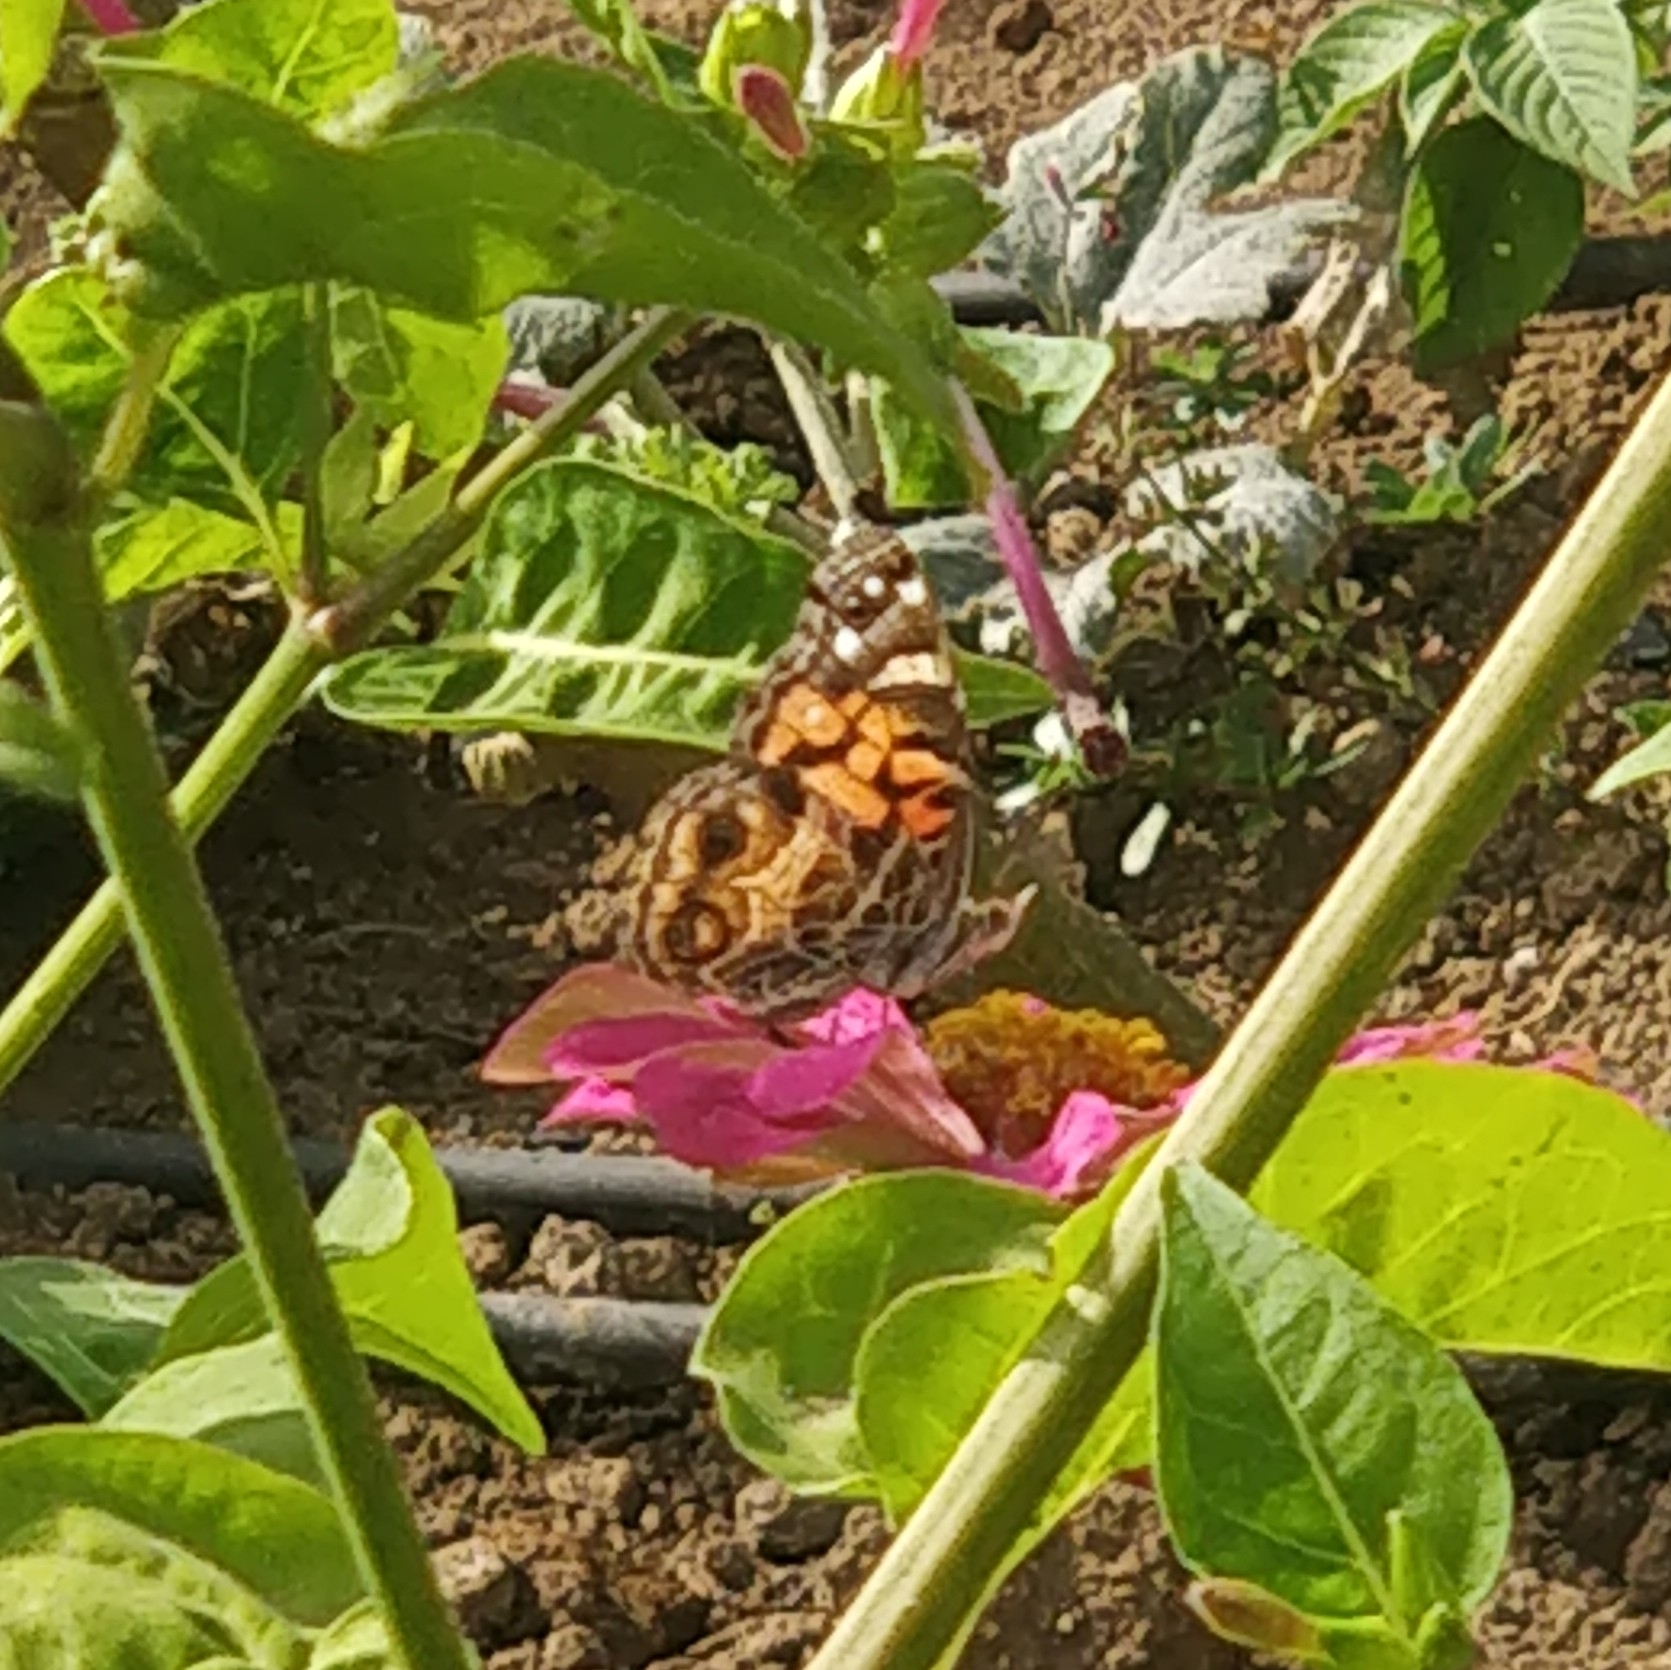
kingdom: Animalia
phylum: Arthropoda
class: Insecta
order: Lepidoptera
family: Nymphalidae
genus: Vanessa
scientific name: Vanessa virginiensis
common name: American lady
